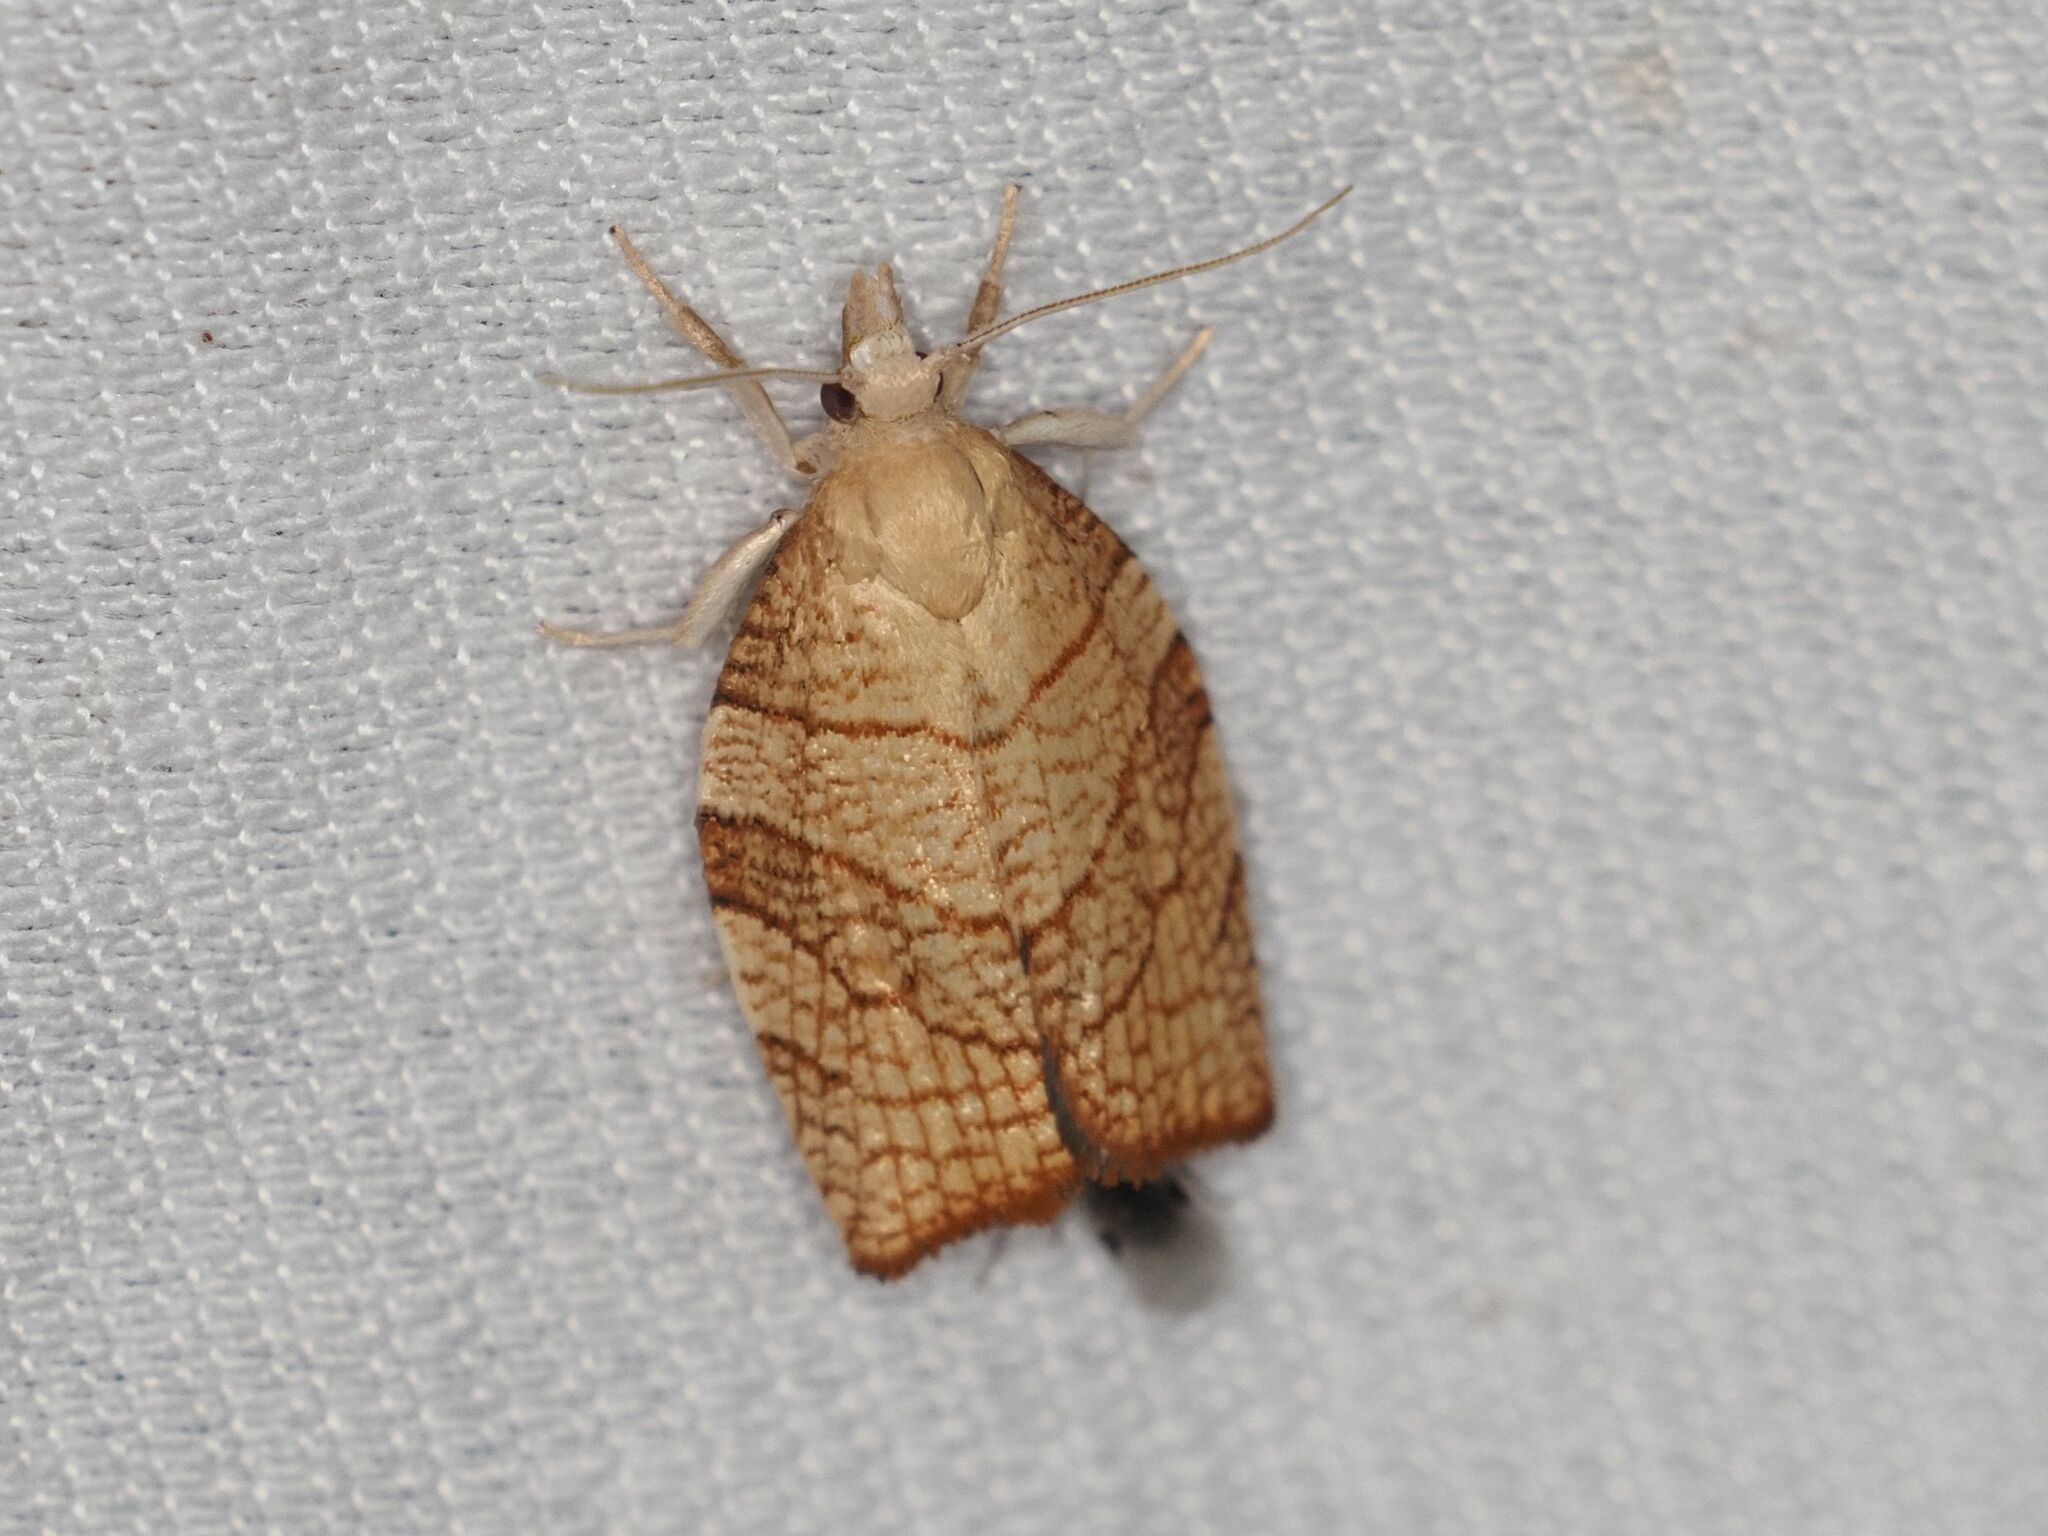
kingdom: Animalia
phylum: Arthropoda
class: Insecta
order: Lepidoptera
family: Tortricidae
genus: Pandemis
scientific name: Pandemis corylana
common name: Chequered fruit-tree tortrix
